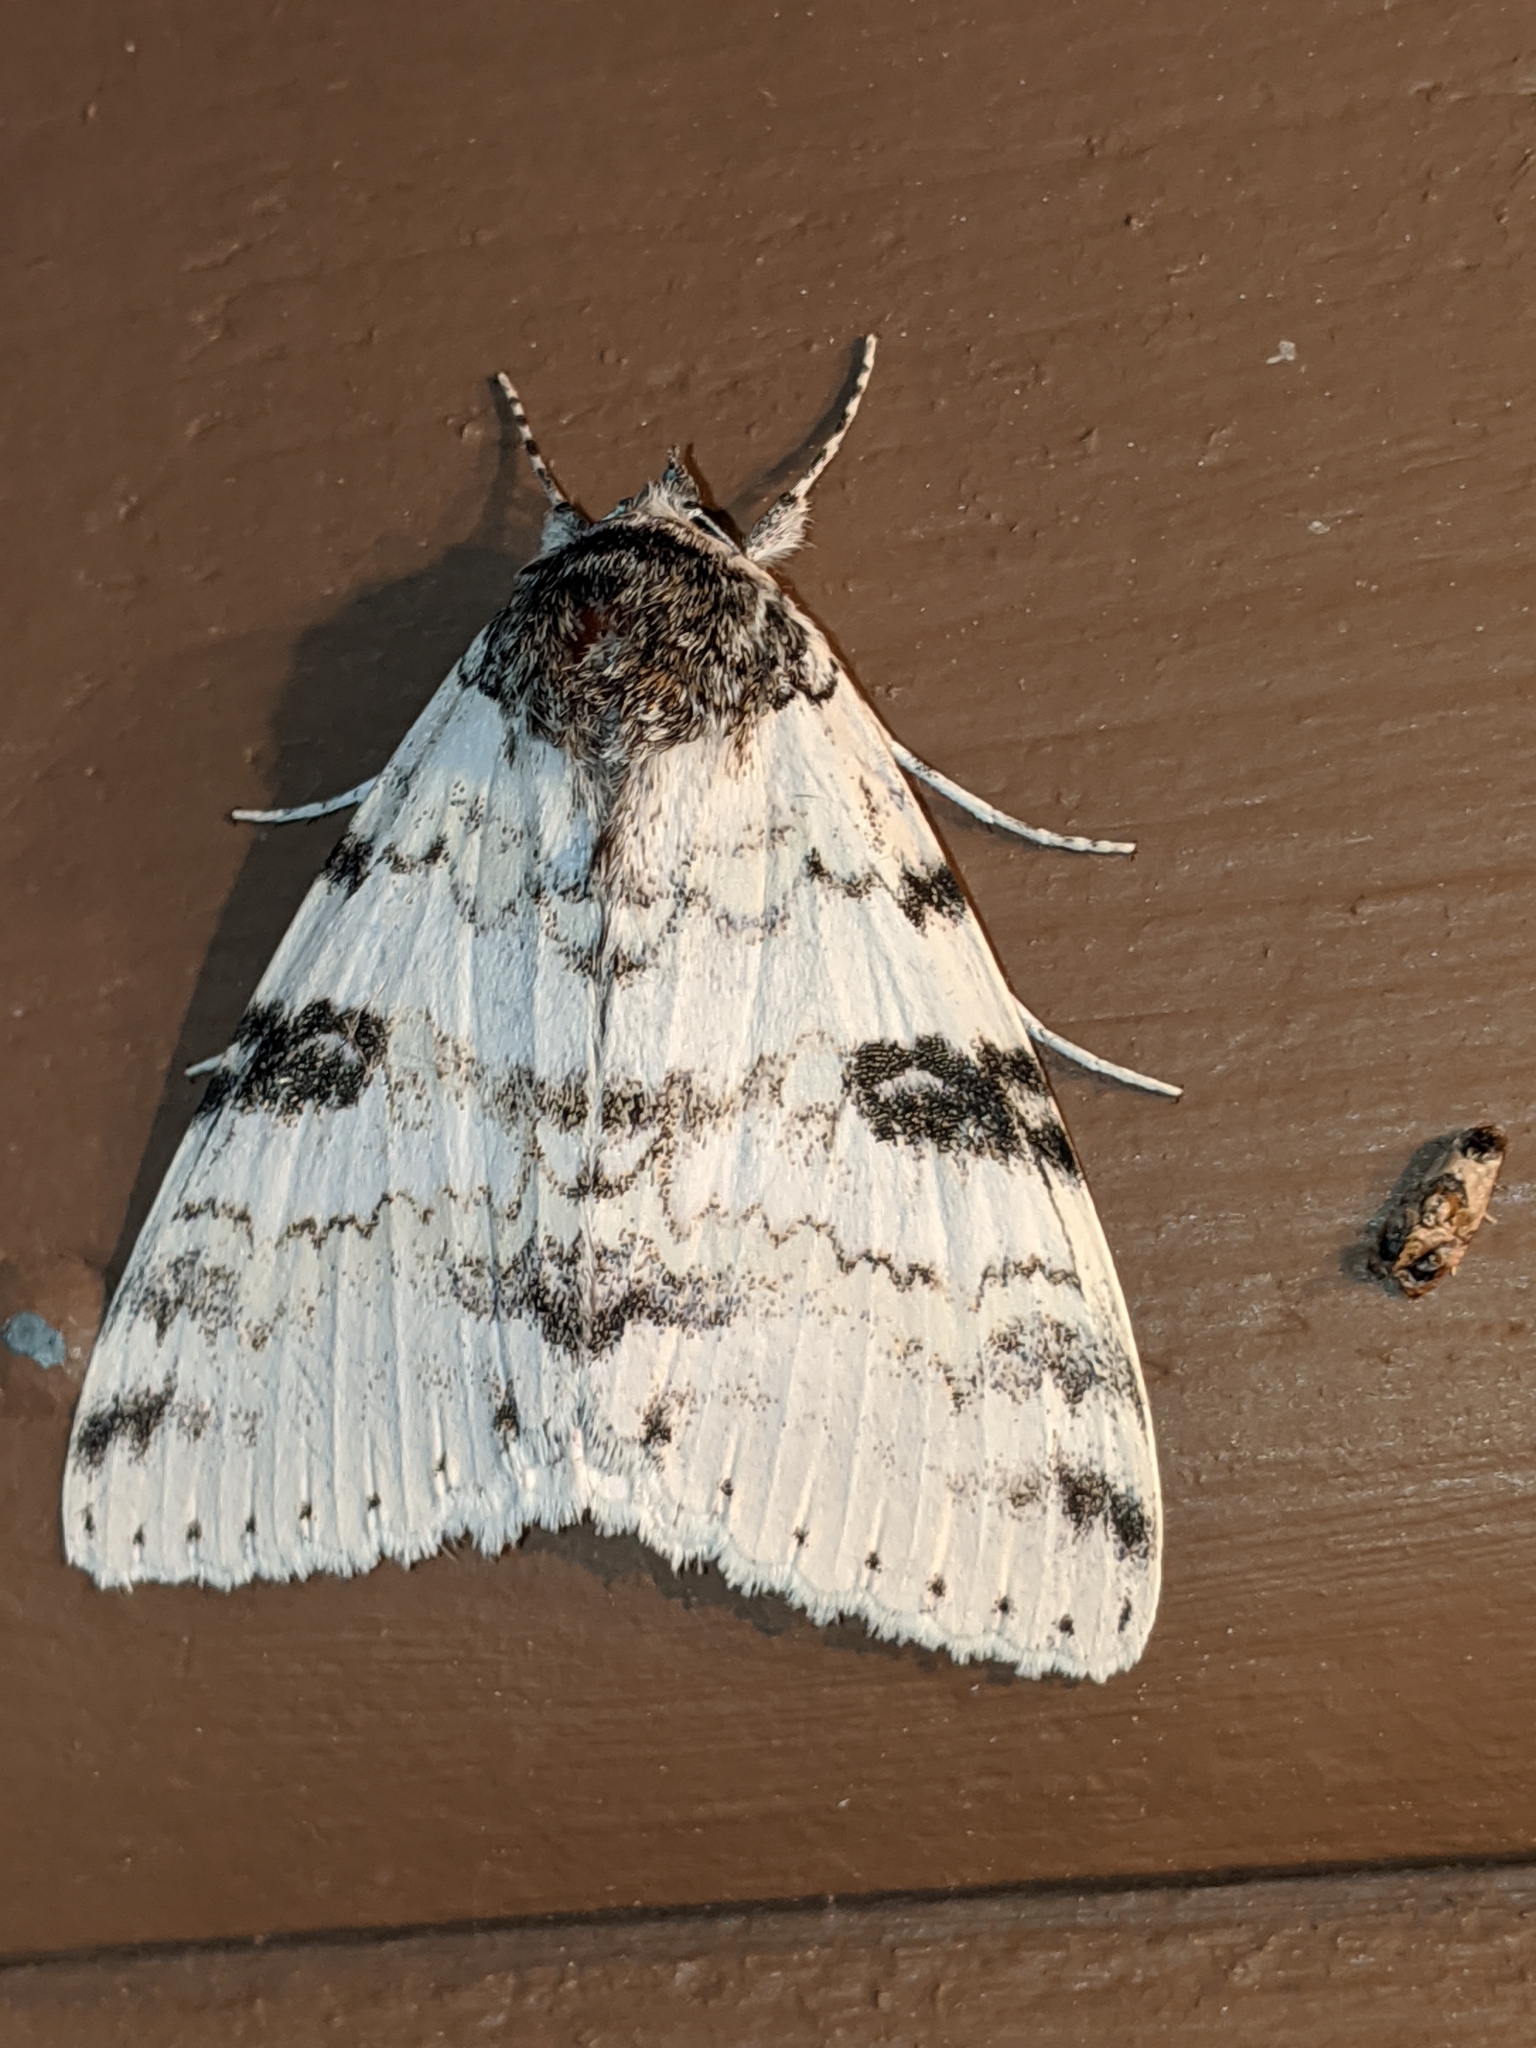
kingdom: Animalia
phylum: Arthropoda
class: Insecta
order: Lepidoptera
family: Erebidae
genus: Catocala
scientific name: Catocala relicta
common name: White underwing
